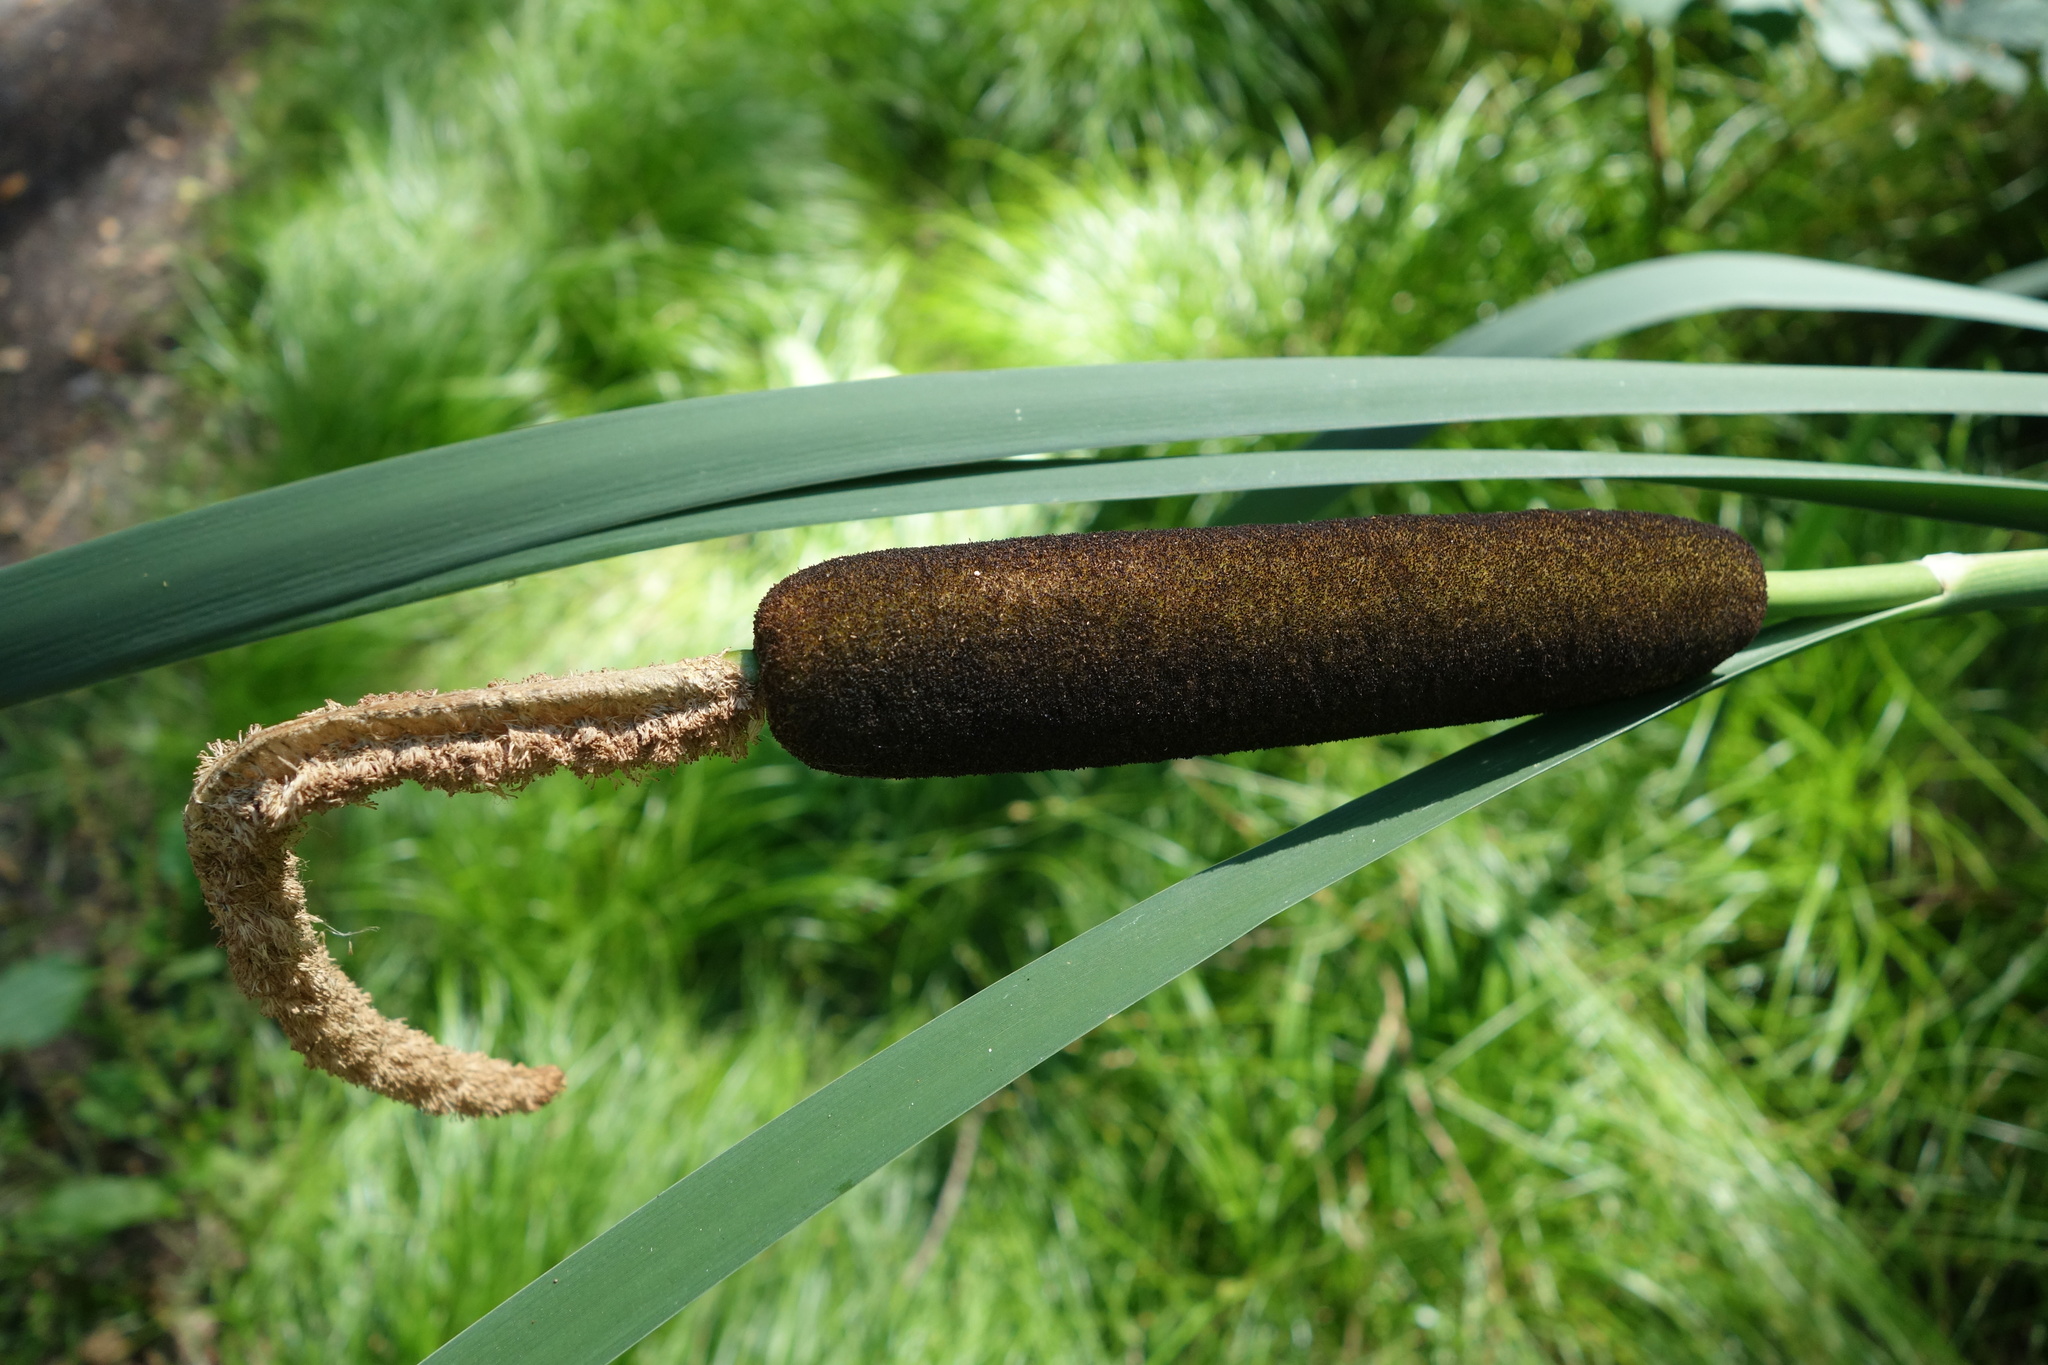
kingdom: Plantae
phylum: Tracheophyta
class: Liliopsida
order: Poales
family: Typhaceae
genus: Typha
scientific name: Typha latifolia
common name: Broadleaf cattail
